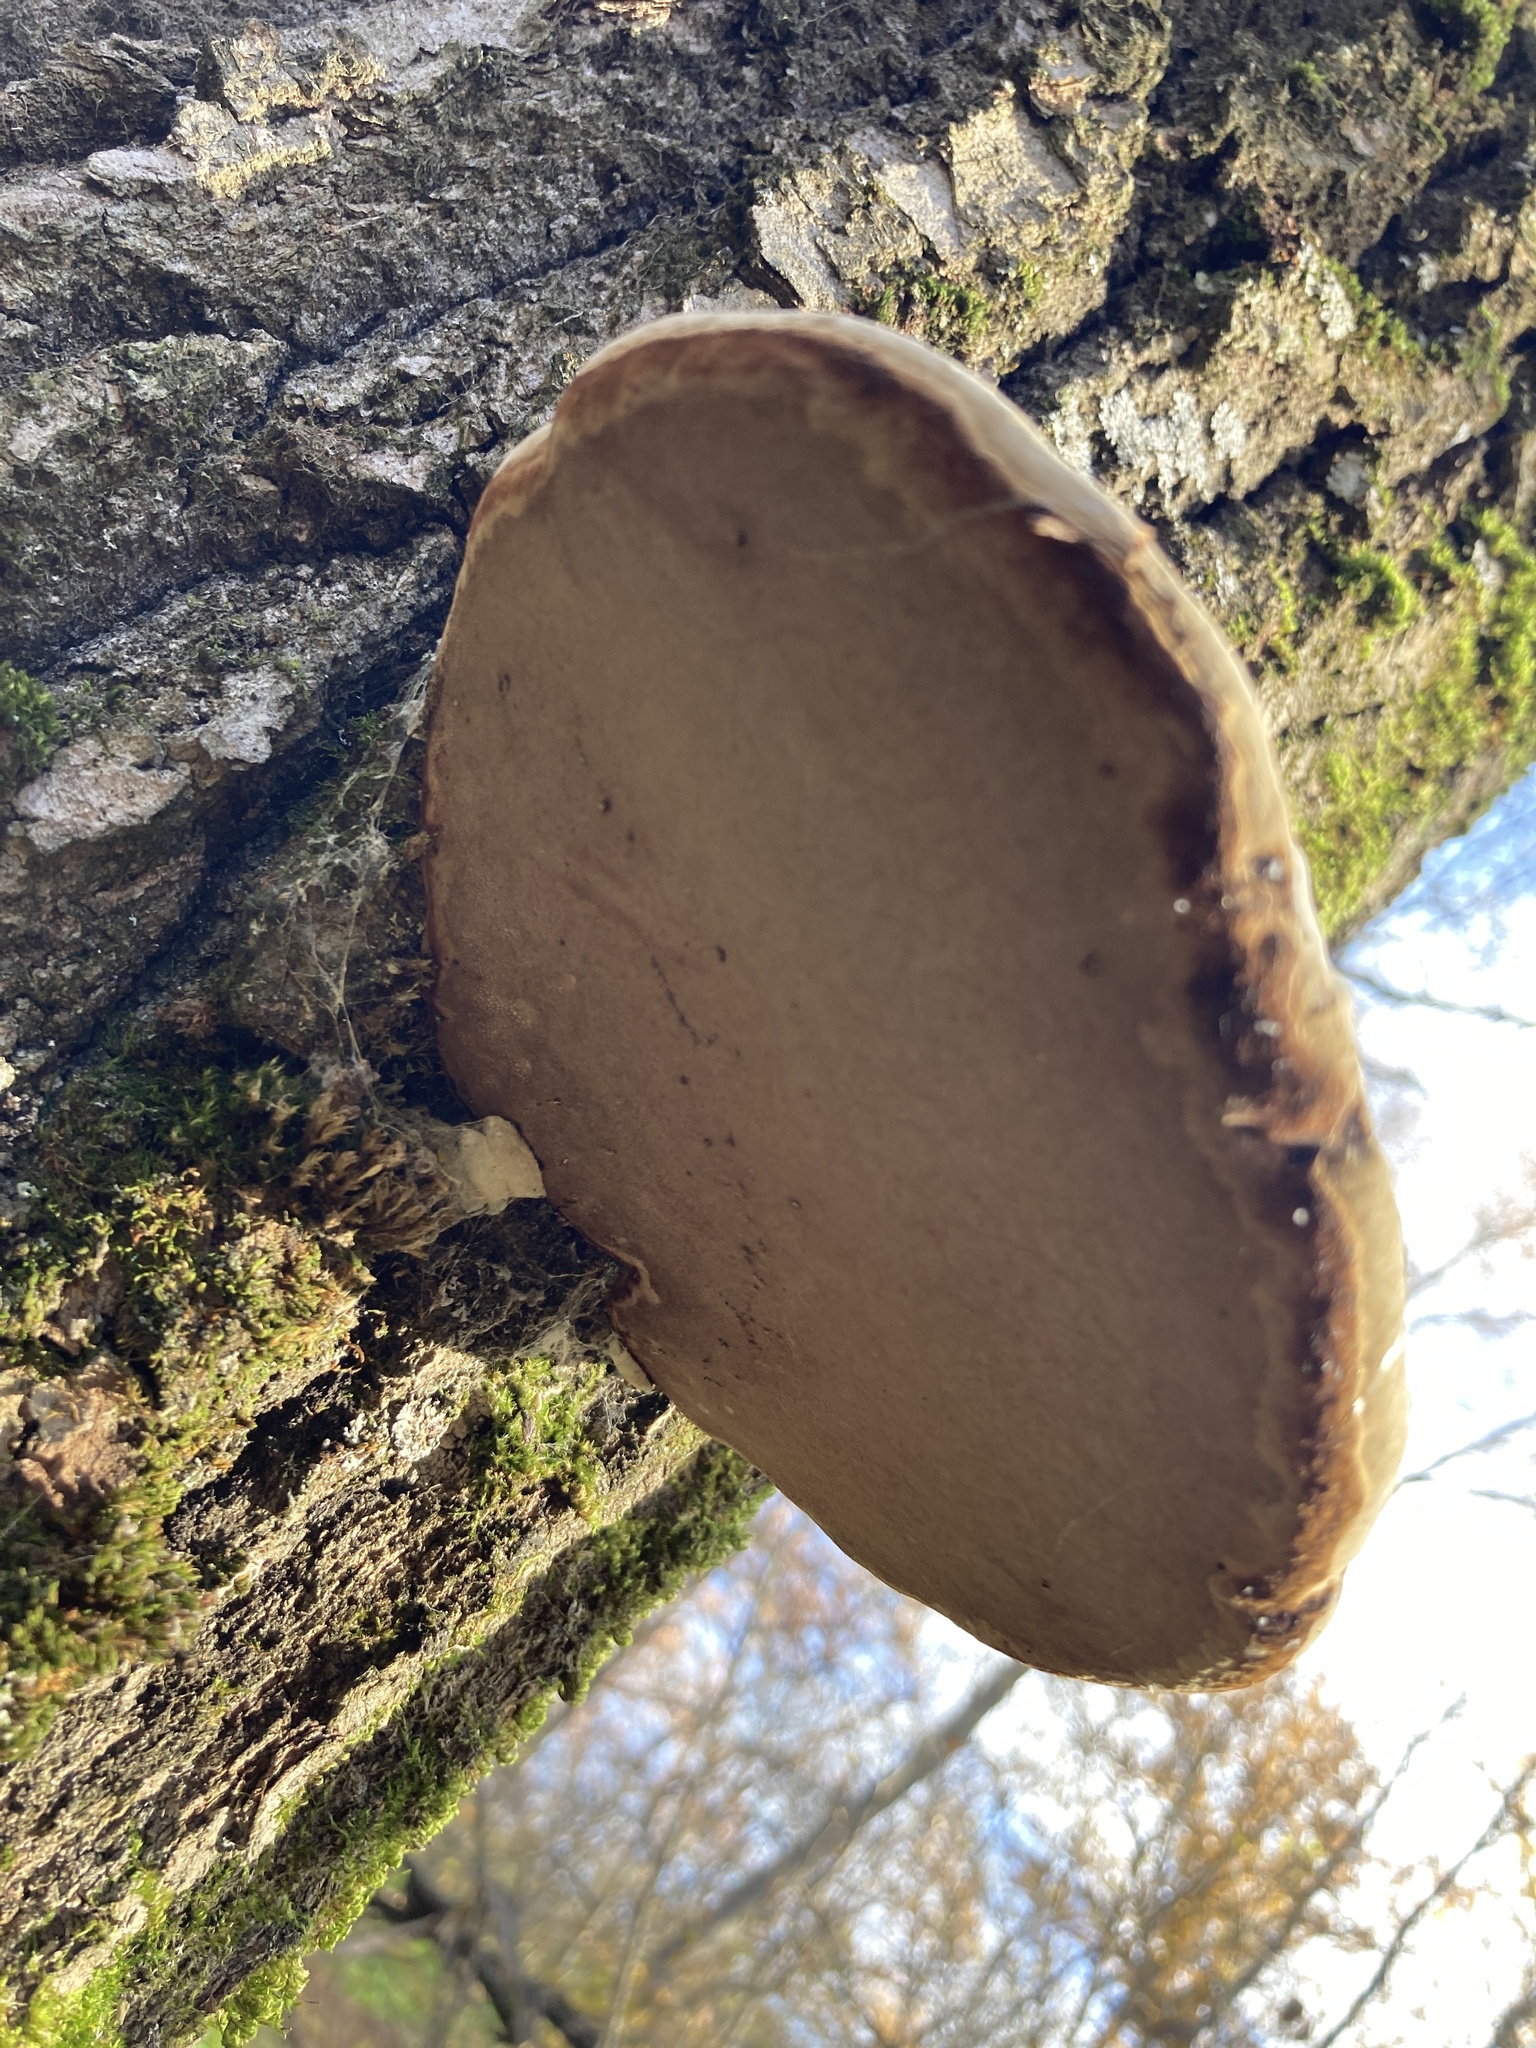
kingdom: Fungi
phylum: Basidiomycota
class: Agaricomycetes
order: Polyporales
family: Polyporaceae
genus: Fomes
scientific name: Fomes fomentarius
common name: Hoof fungus
